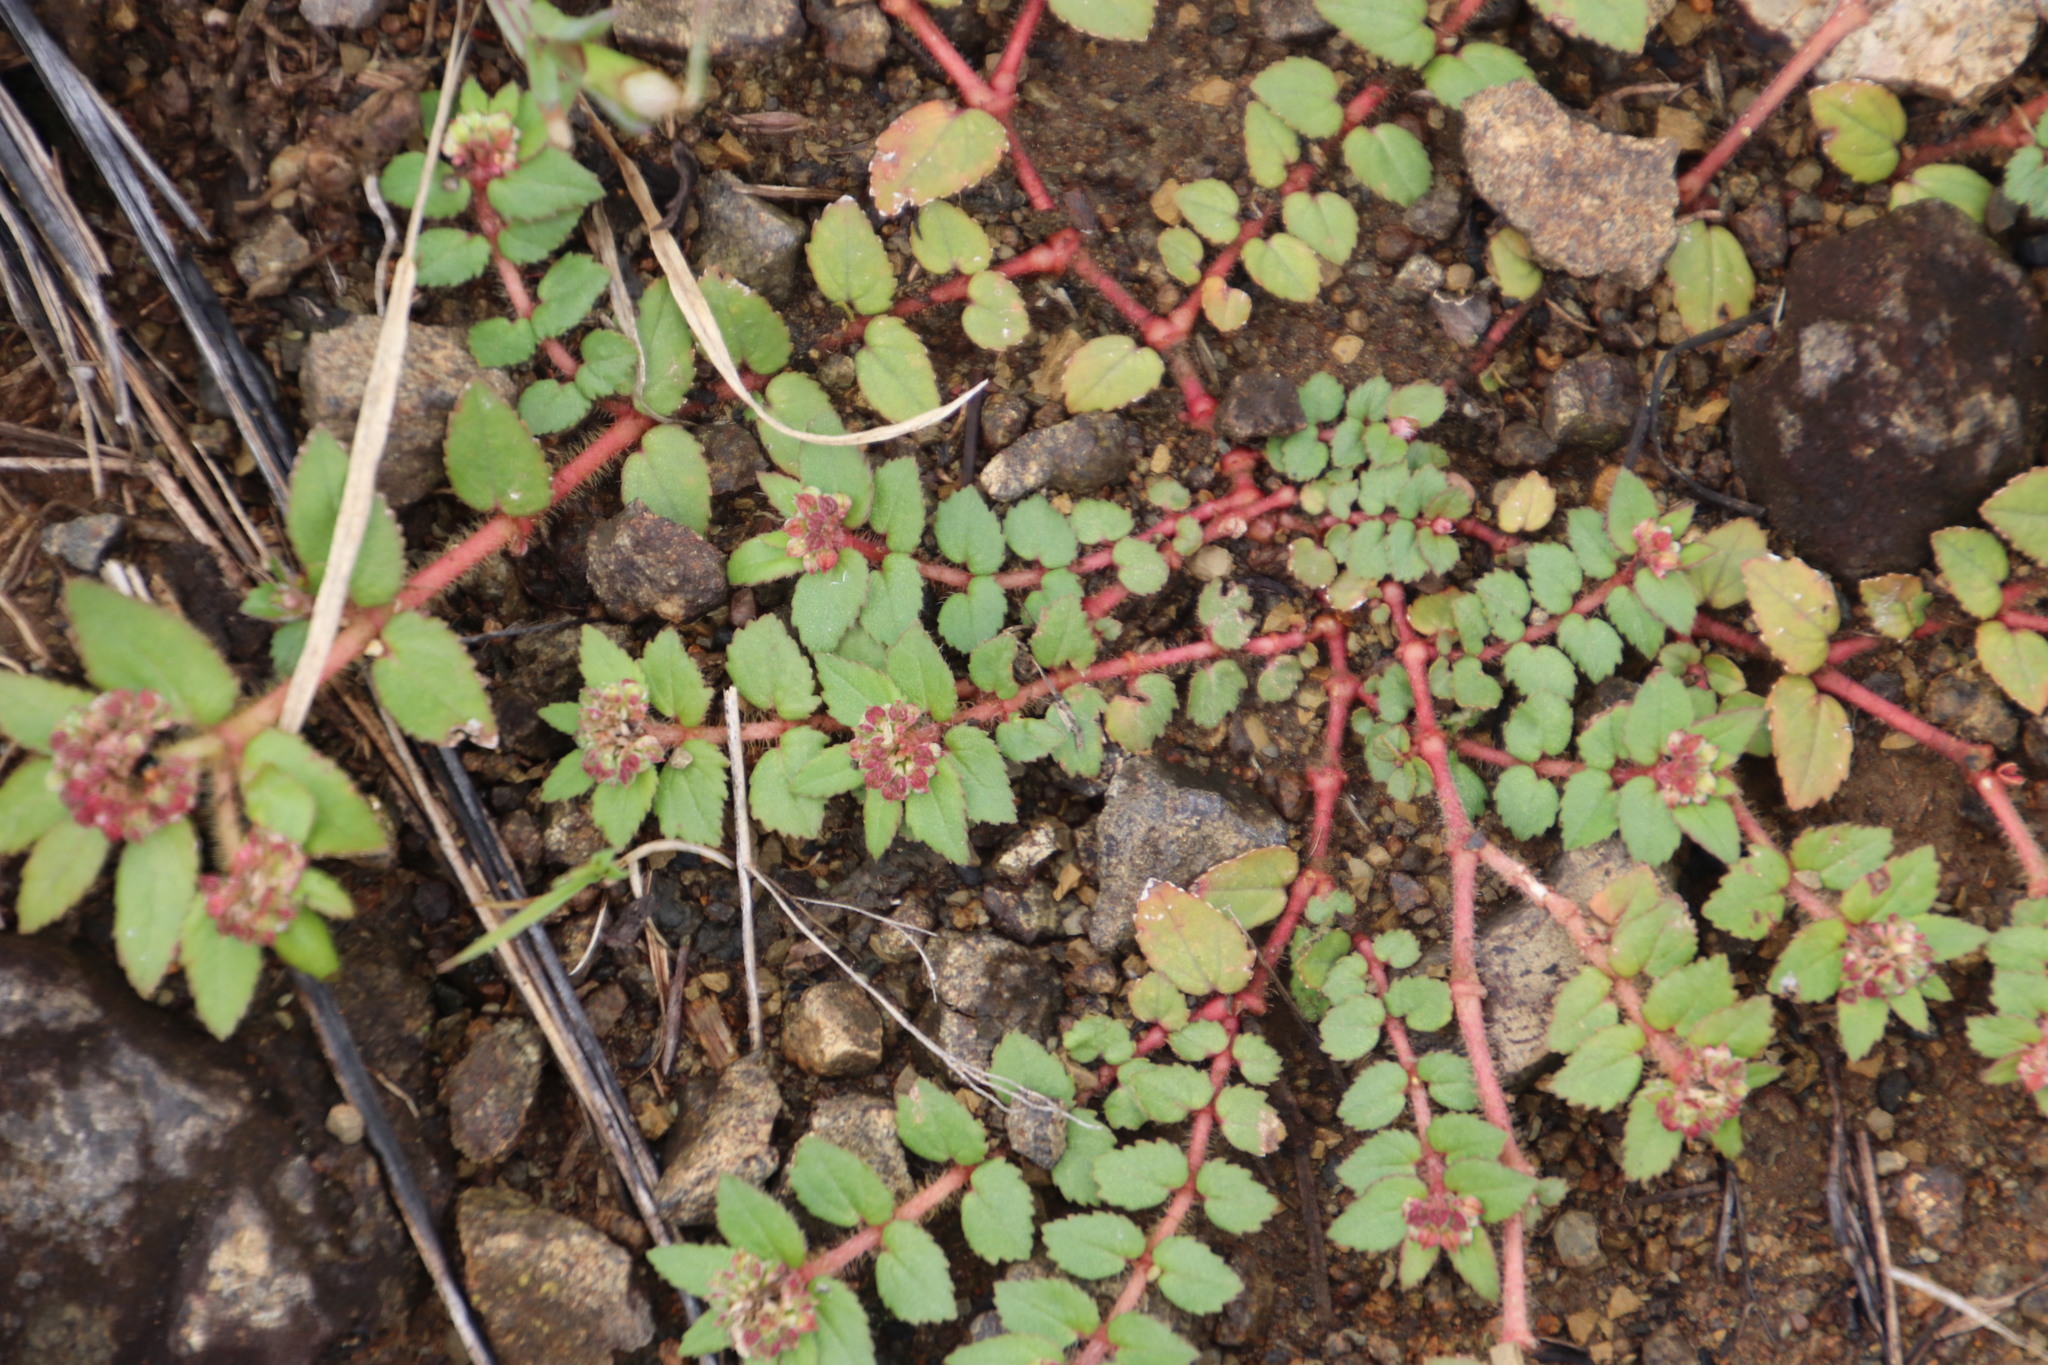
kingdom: Plantae
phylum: Tracheophyta
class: Magnoliopsida
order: Malpighiales
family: Euphorbiaceae
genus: Euphorbia
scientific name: Euphorbia ophthalmica
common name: Florida hammock sandmat
